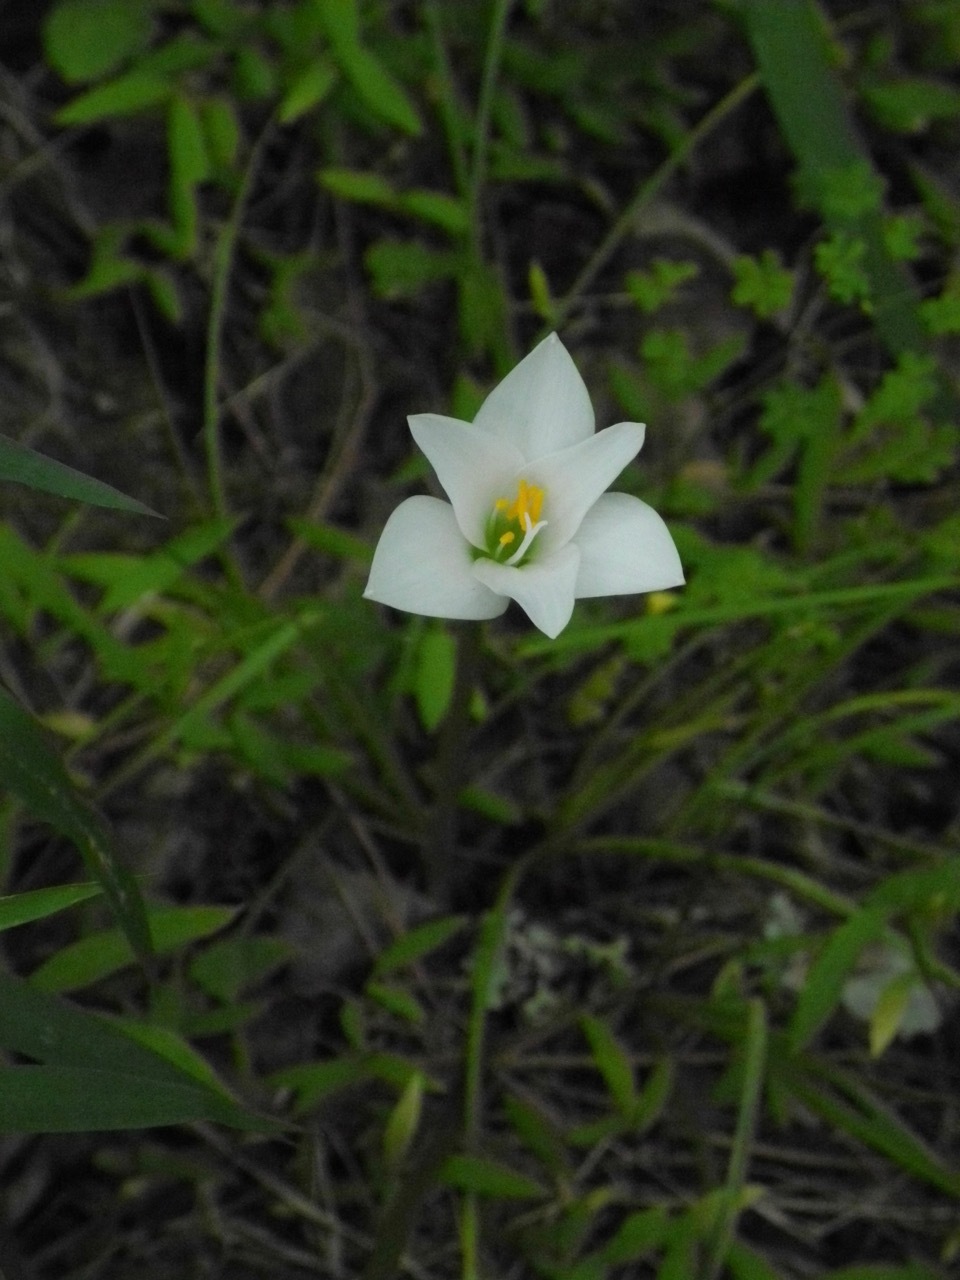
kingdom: Plantae
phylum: Tracheophyta
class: Liliopsida
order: Asparagales
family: Amaryllidaceae
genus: Zephyranthes
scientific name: Zephyranthes atamasco
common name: Atamasco lily
